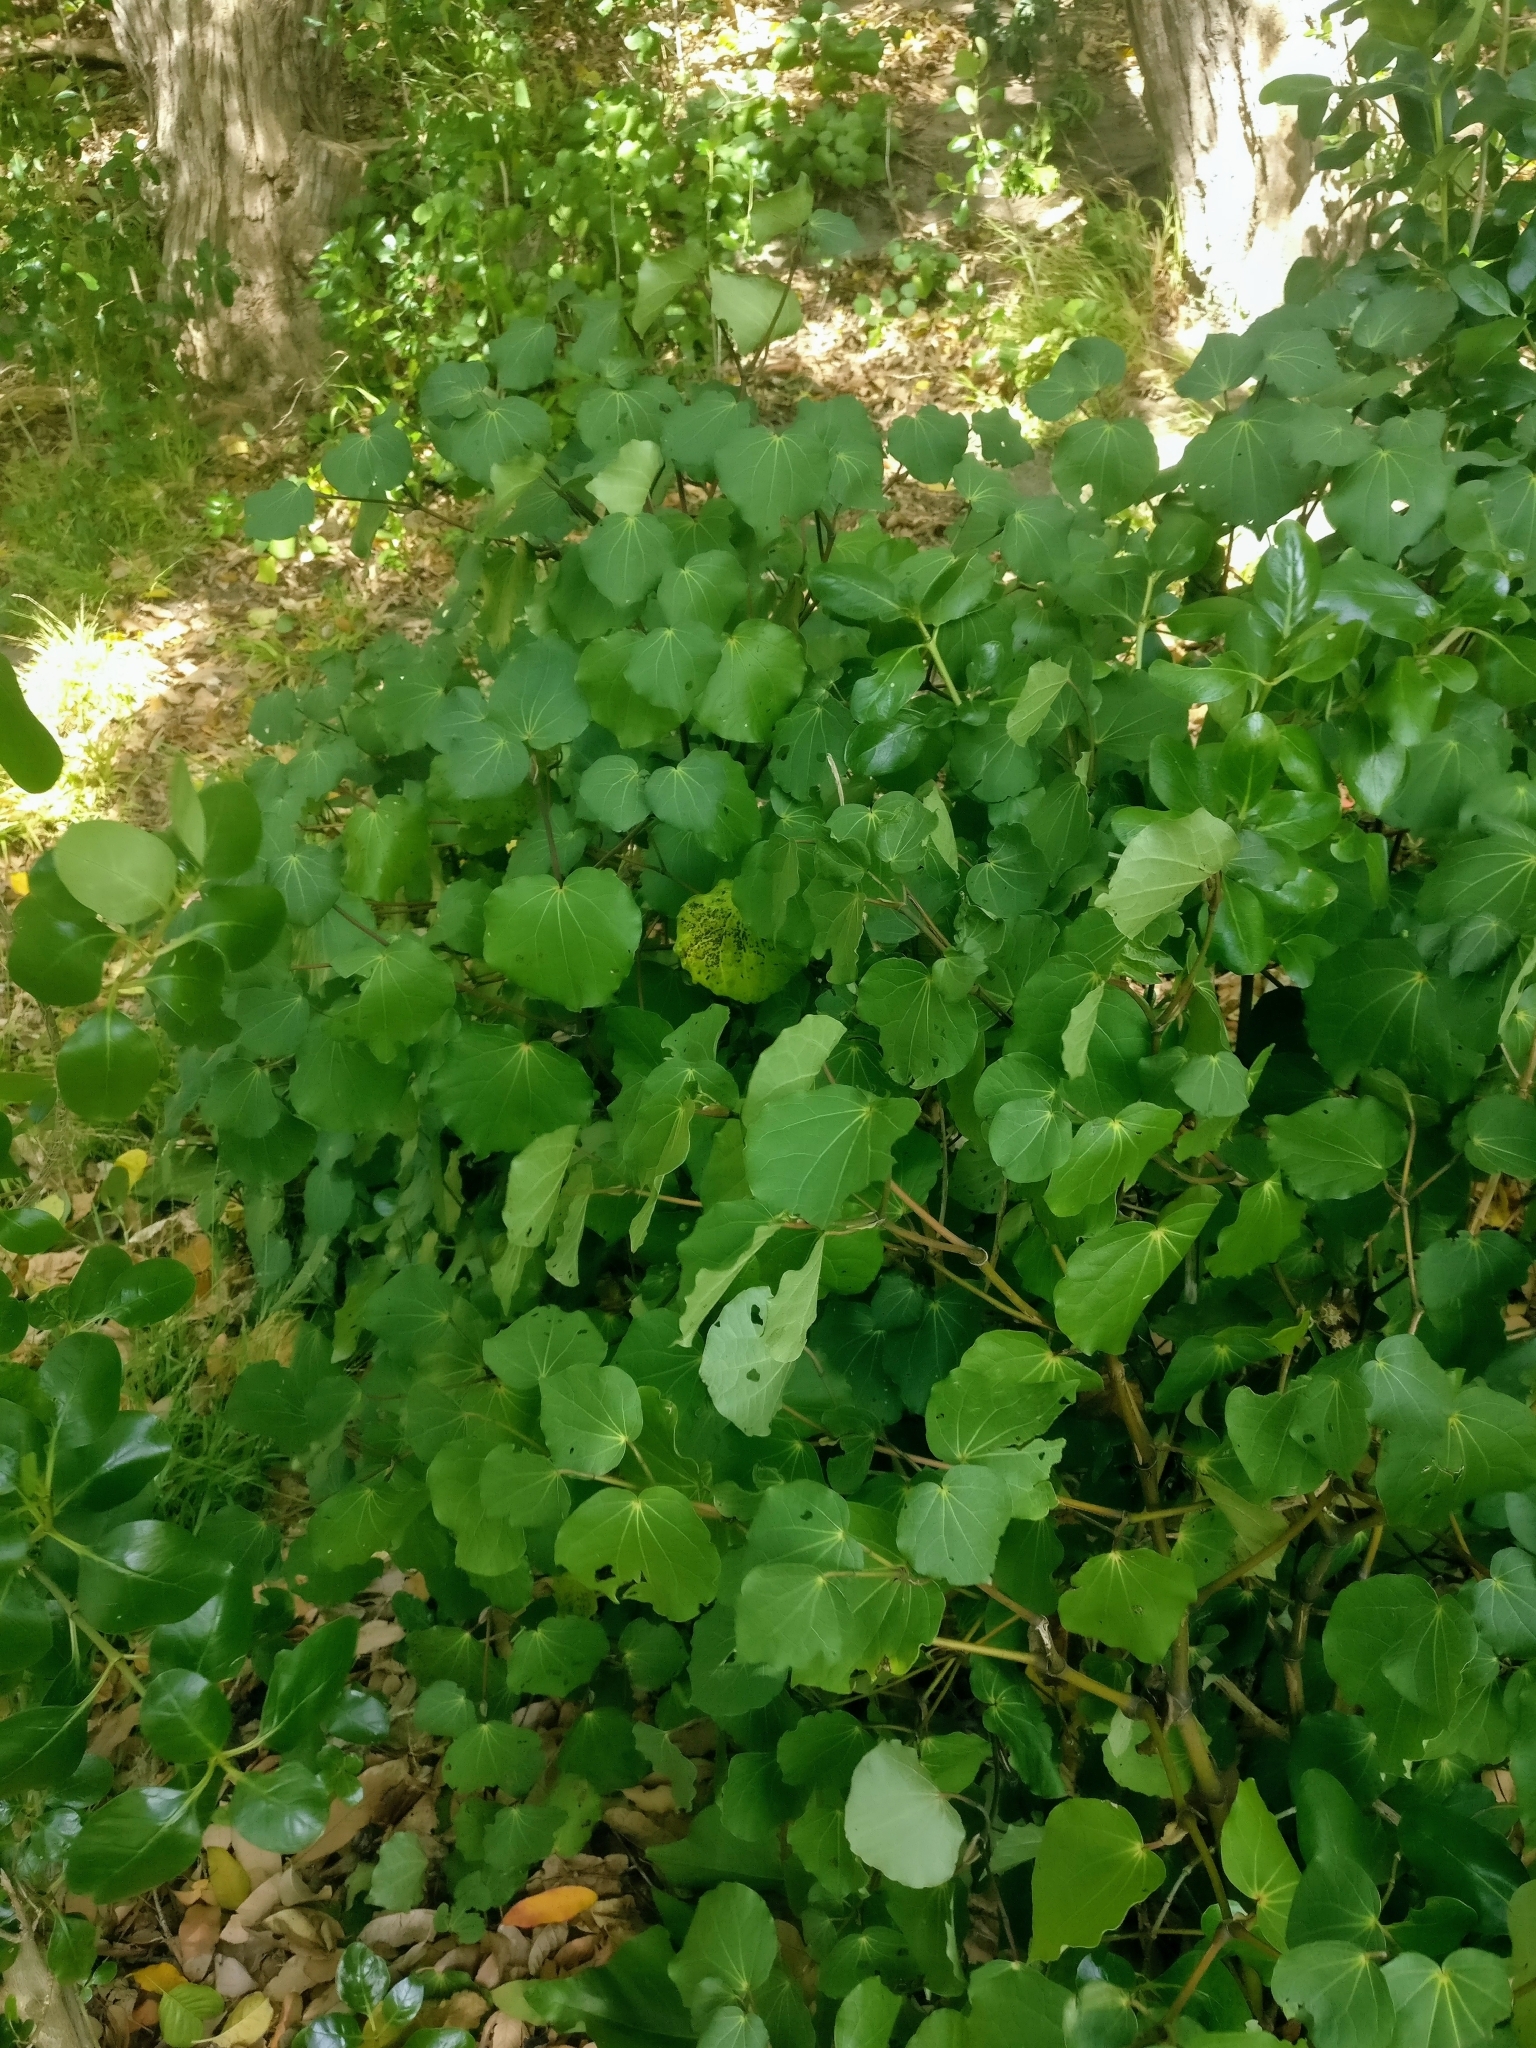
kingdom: Plantae
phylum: Tracheophyta
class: Magnoliopsida
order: Piperales
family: Piperaceae
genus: Macropiper
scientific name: Macropiper excelsum
